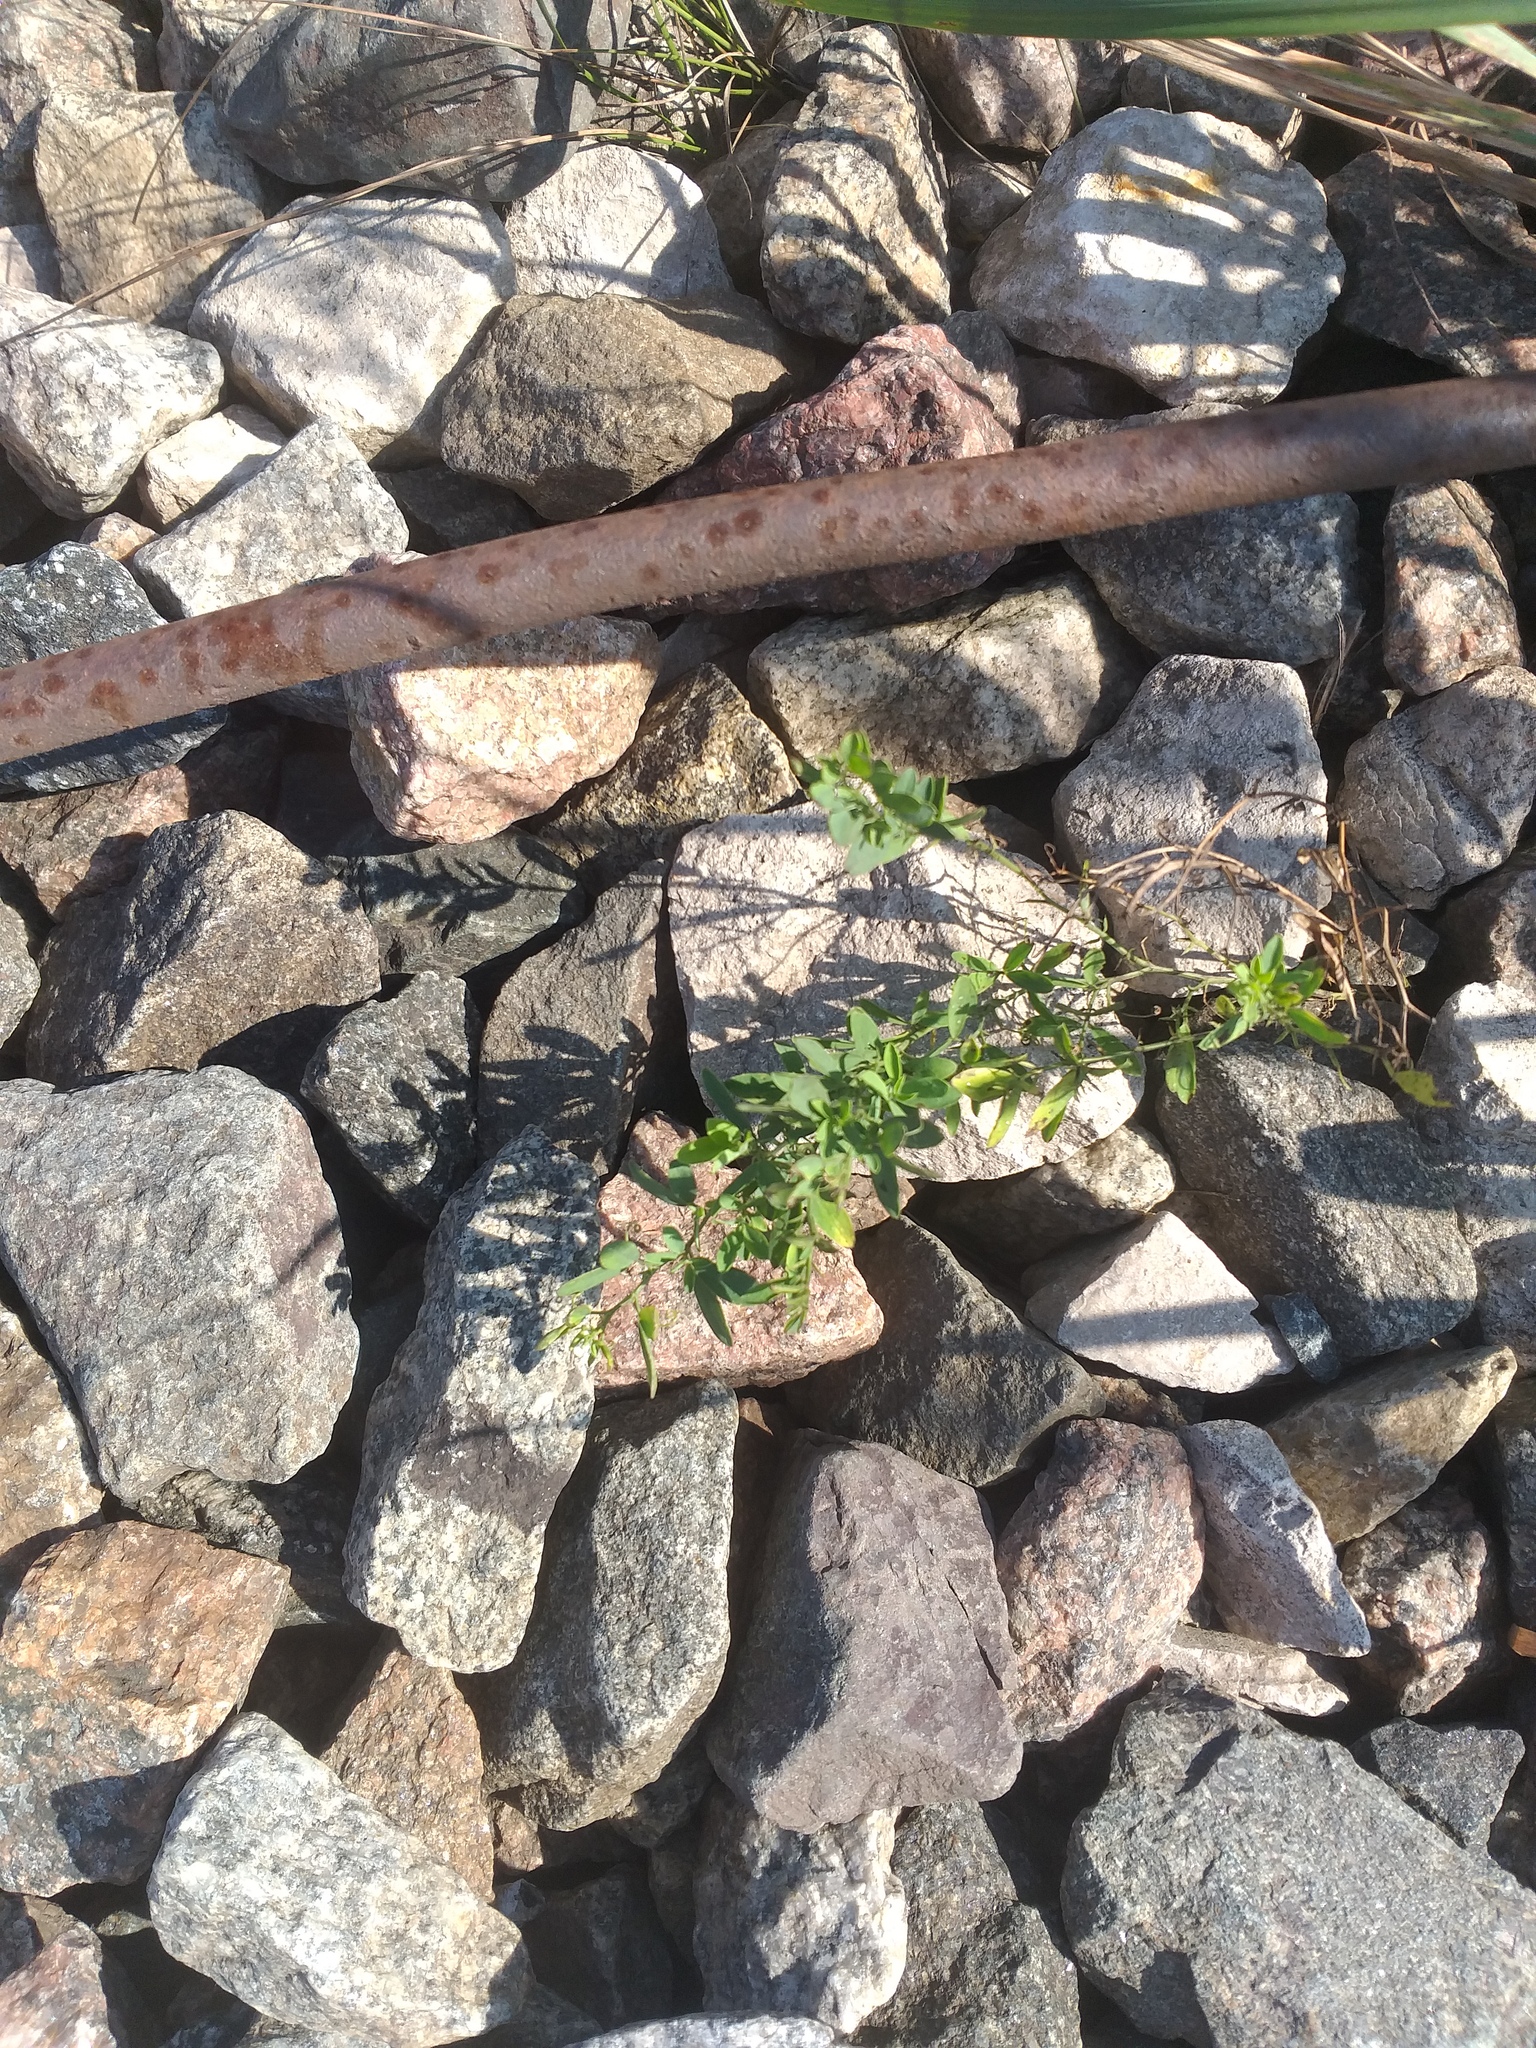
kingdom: Plantae
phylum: Tracheophyta
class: Magnoliopsida
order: Fabales
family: Fabaceae
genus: Lathyrus
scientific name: Lathyrus tuberosus
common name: Tuberous pea
